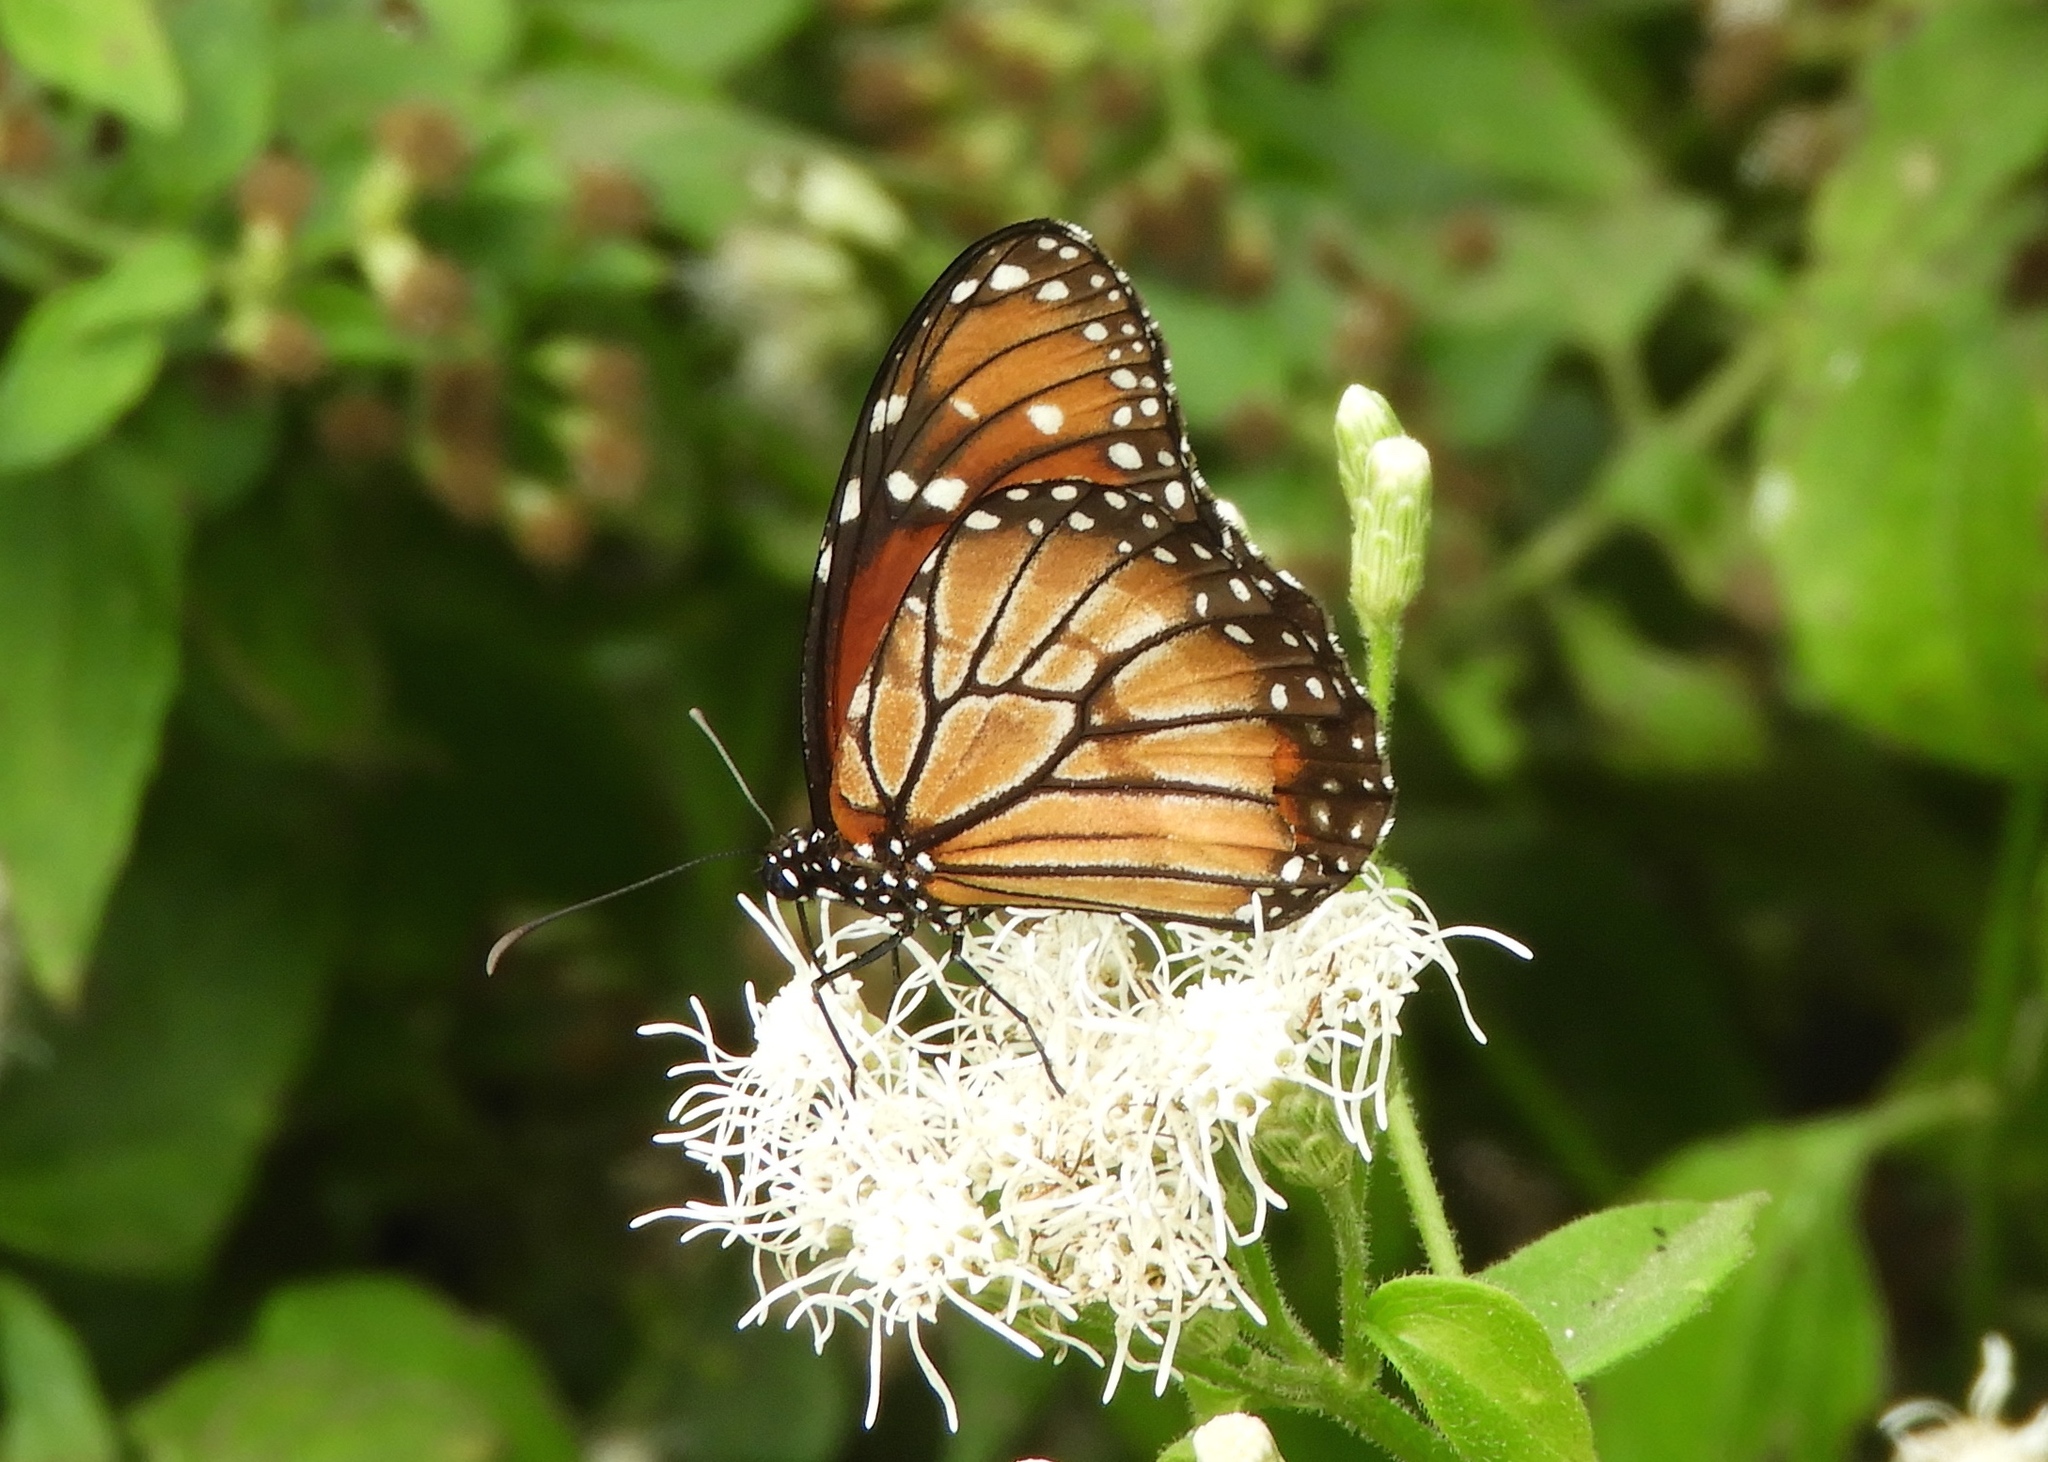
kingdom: Animalia
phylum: Arthropoda
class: Insecta
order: Lepidoptera
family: Nymphalidae
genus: Danaus
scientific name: Danaus eresimus
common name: Soldier
